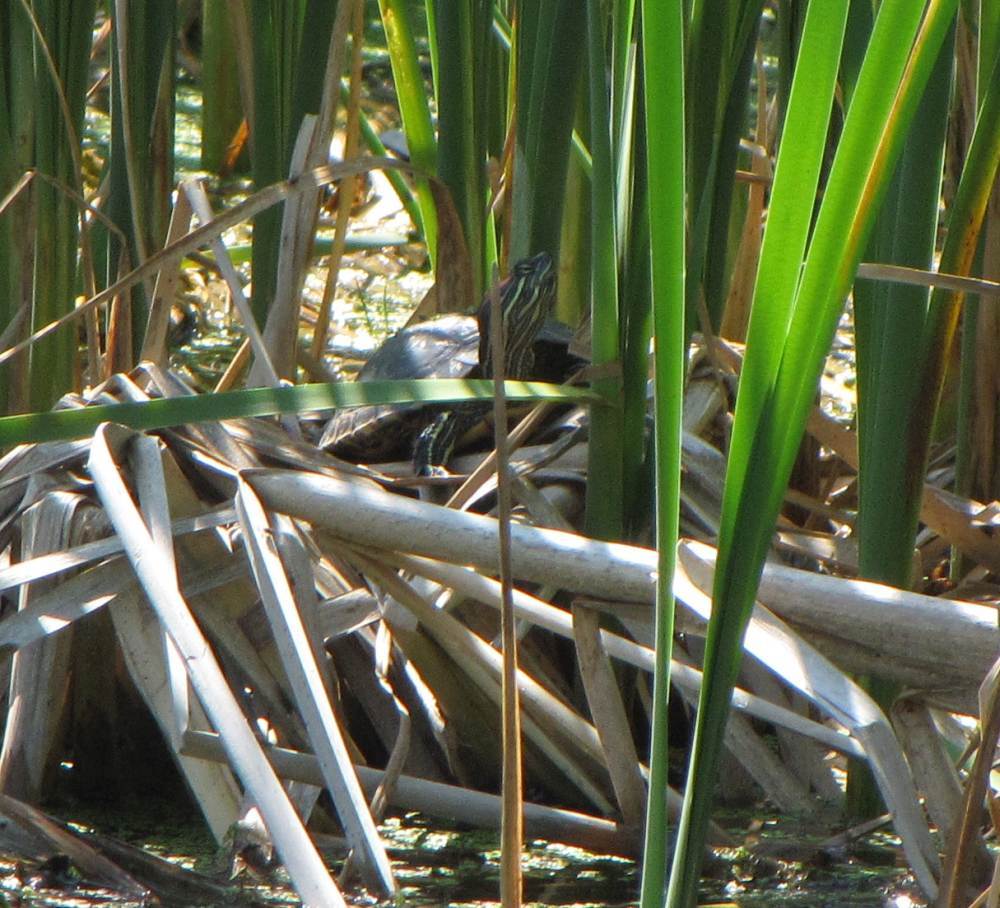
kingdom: Animalia
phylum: Chordata
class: Testudines
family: Emydidae
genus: Chrysemys
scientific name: Chrysemys picta
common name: Painted turtle
